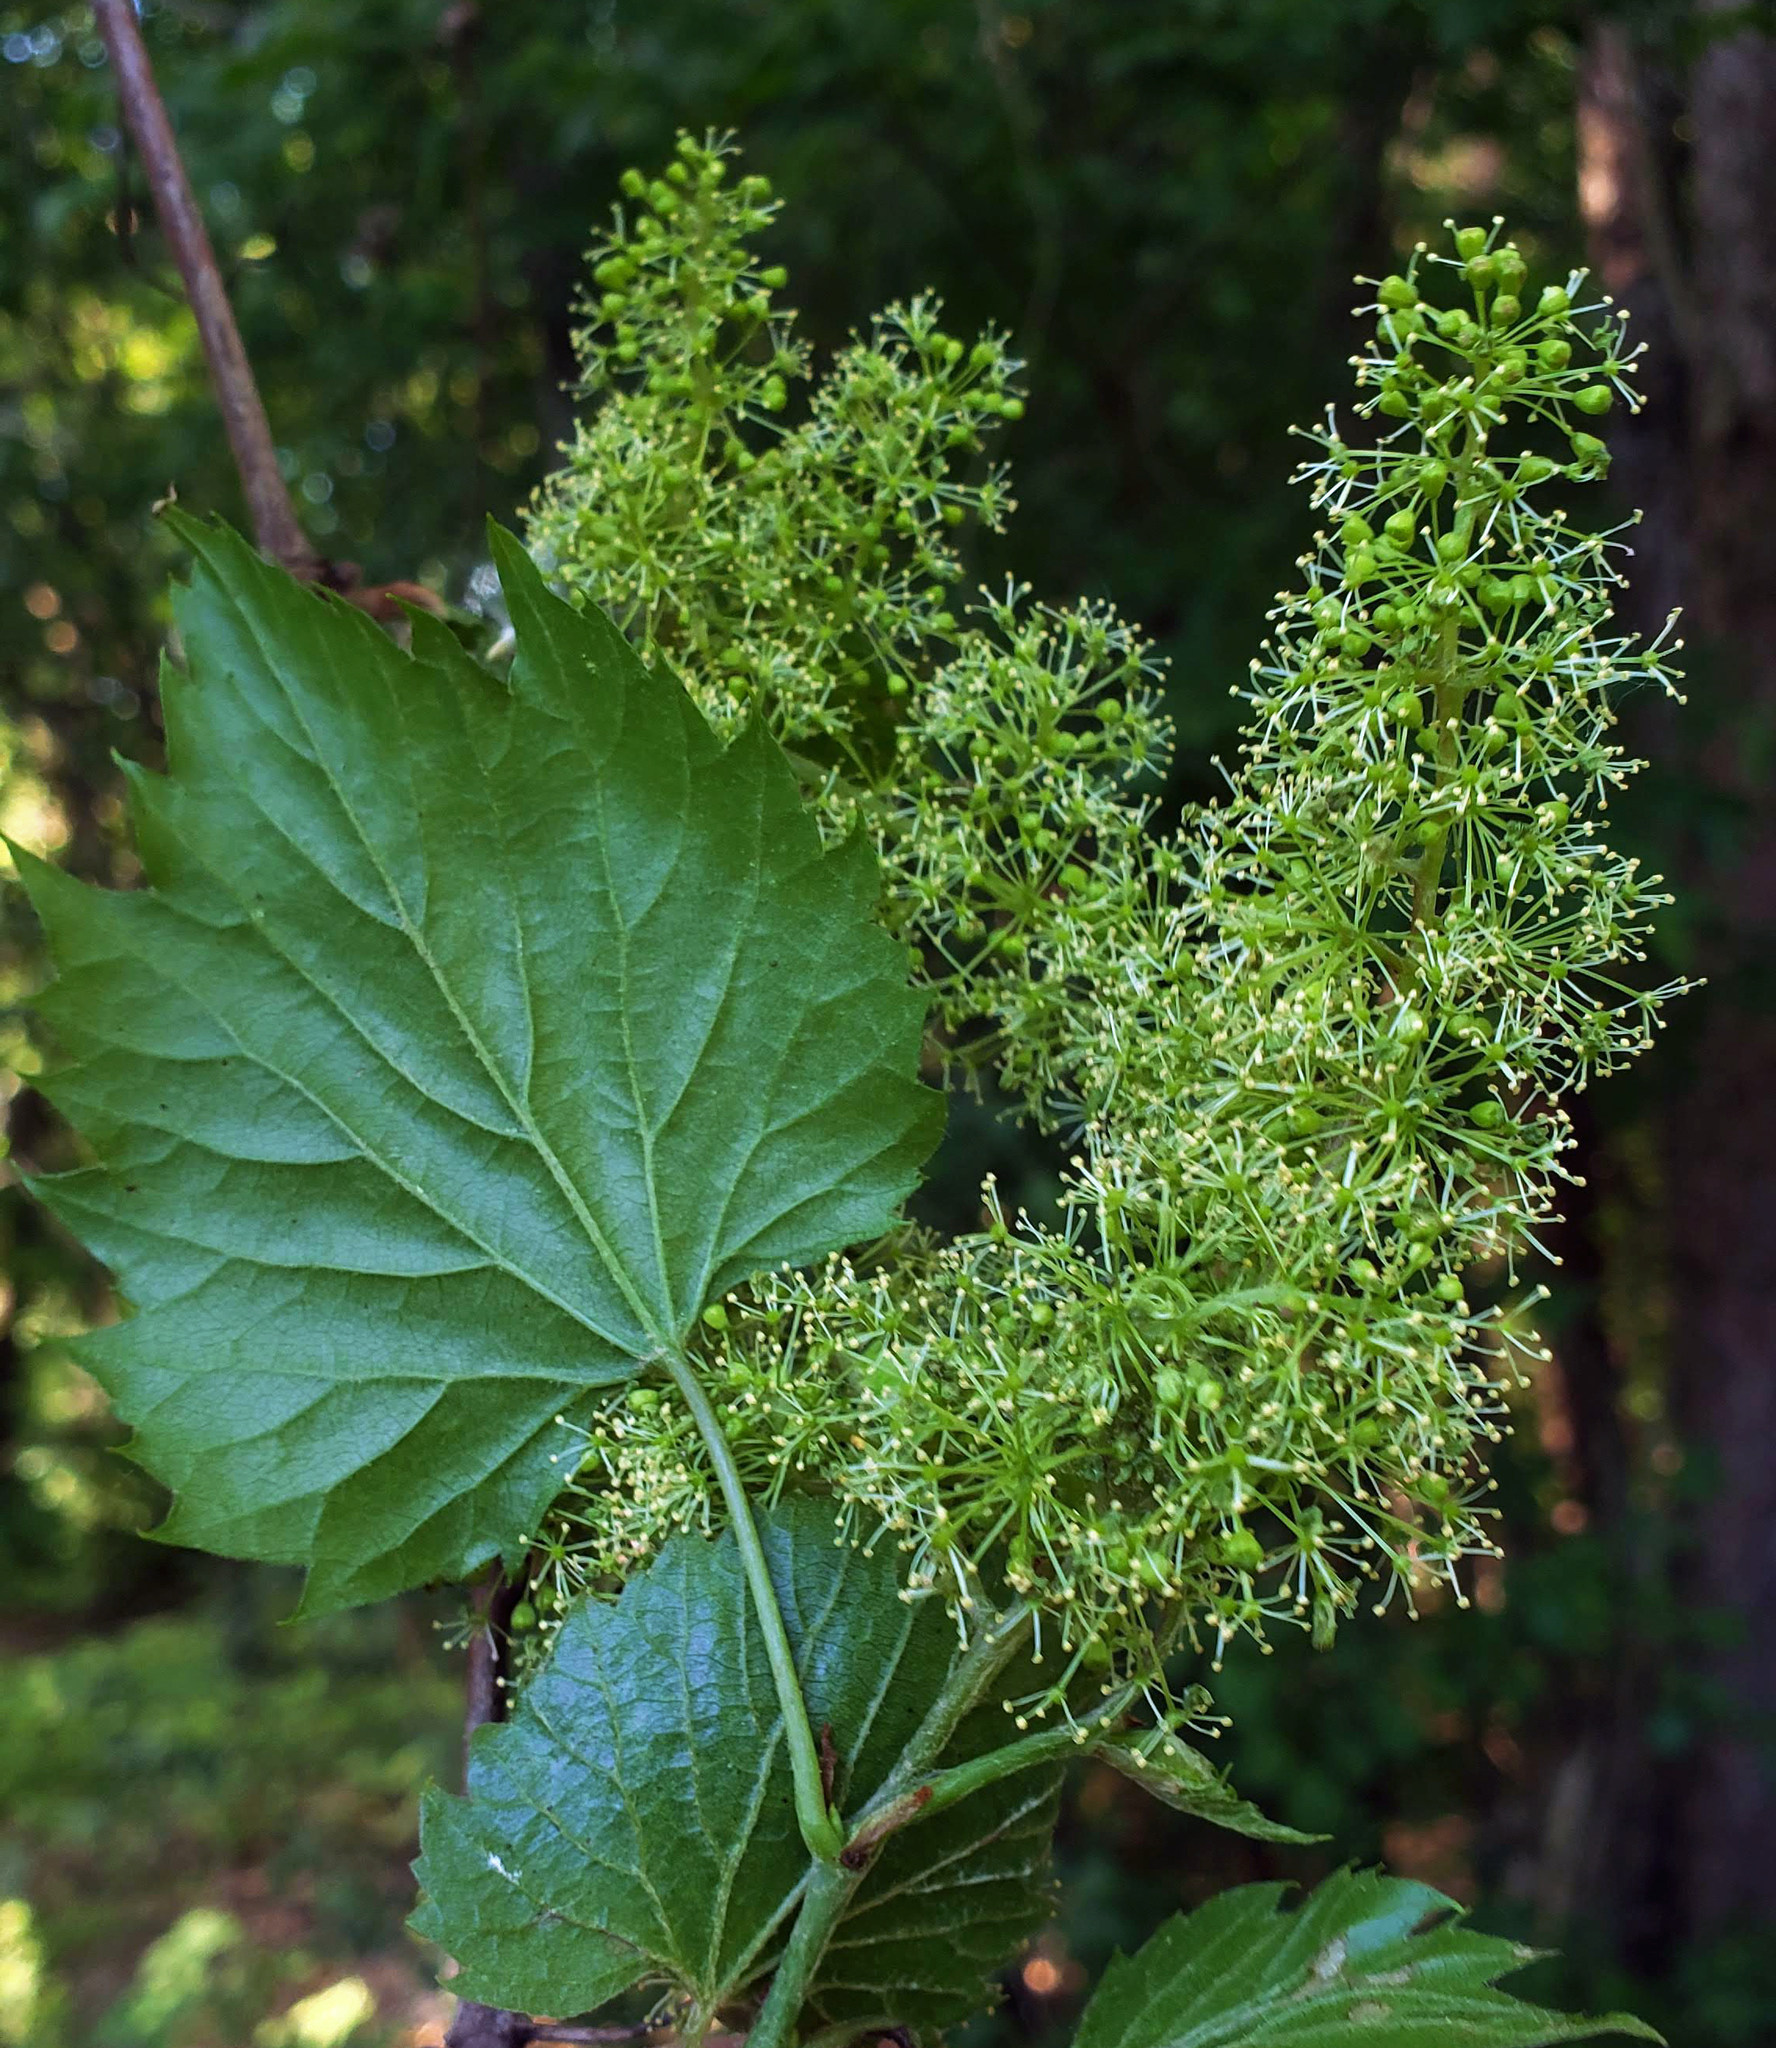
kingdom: Plantae
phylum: Tracheophyta
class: Magnoliopsida
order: Vitales
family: Vitaceae
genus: Vitis
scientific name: Vitis riparia
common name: Frost grape
